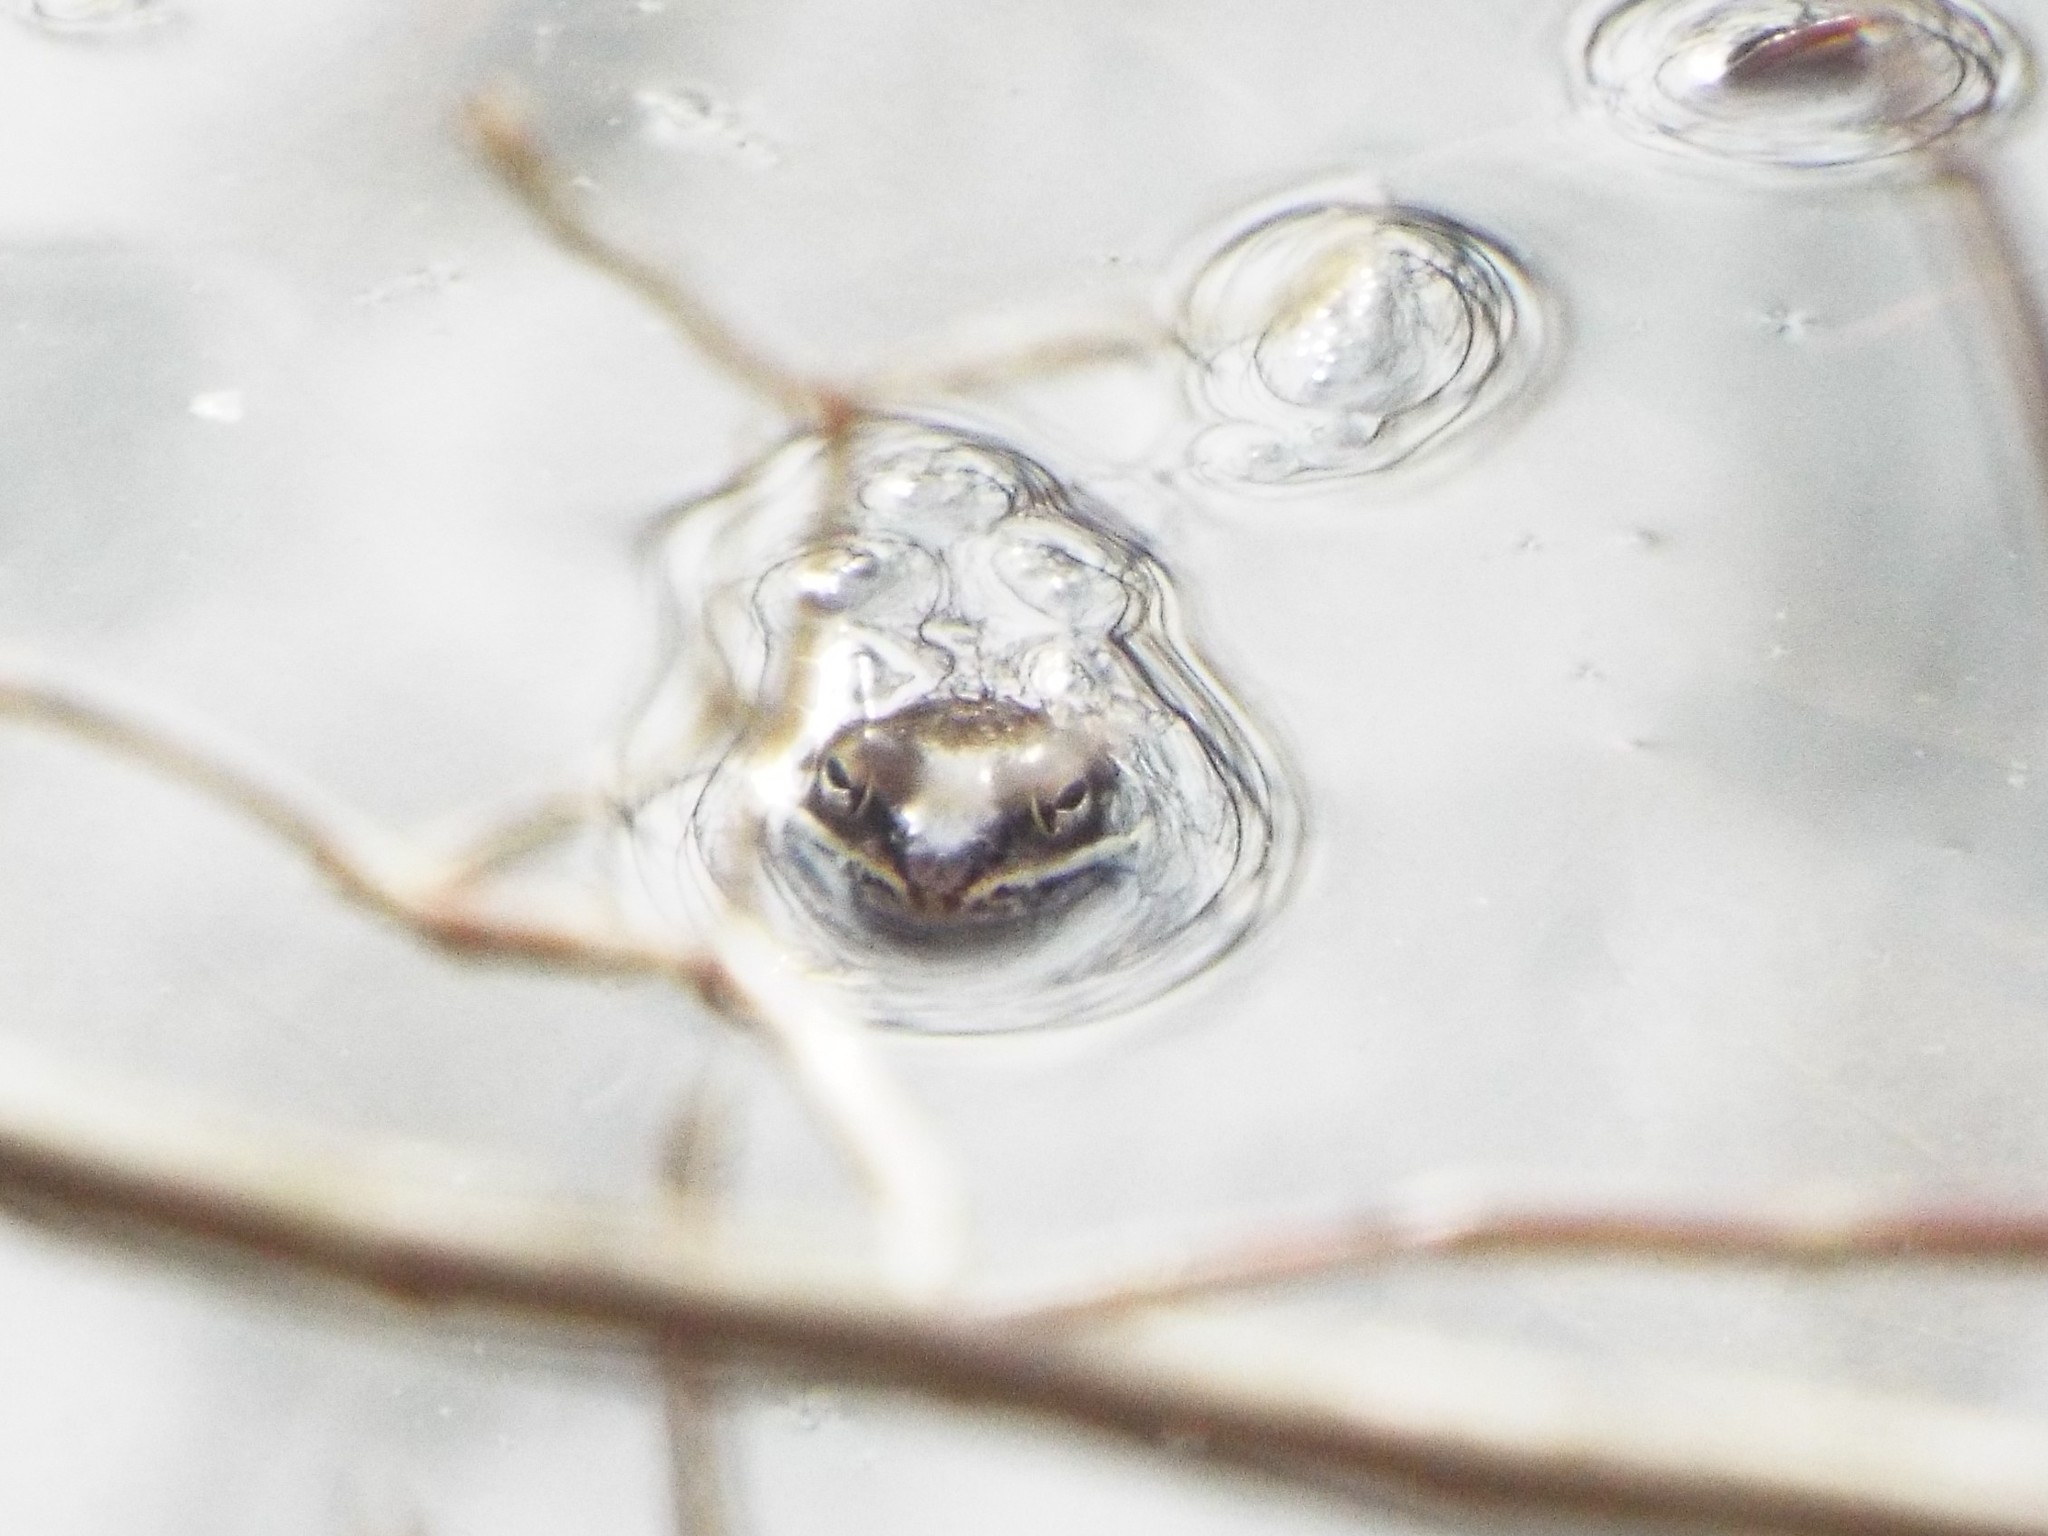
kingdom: Animalia
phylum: Chordata
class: Amphibia
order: Anura
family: Ranidae
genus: Lithobates
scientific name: Lithobates sylvaticus
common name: Wood frog
